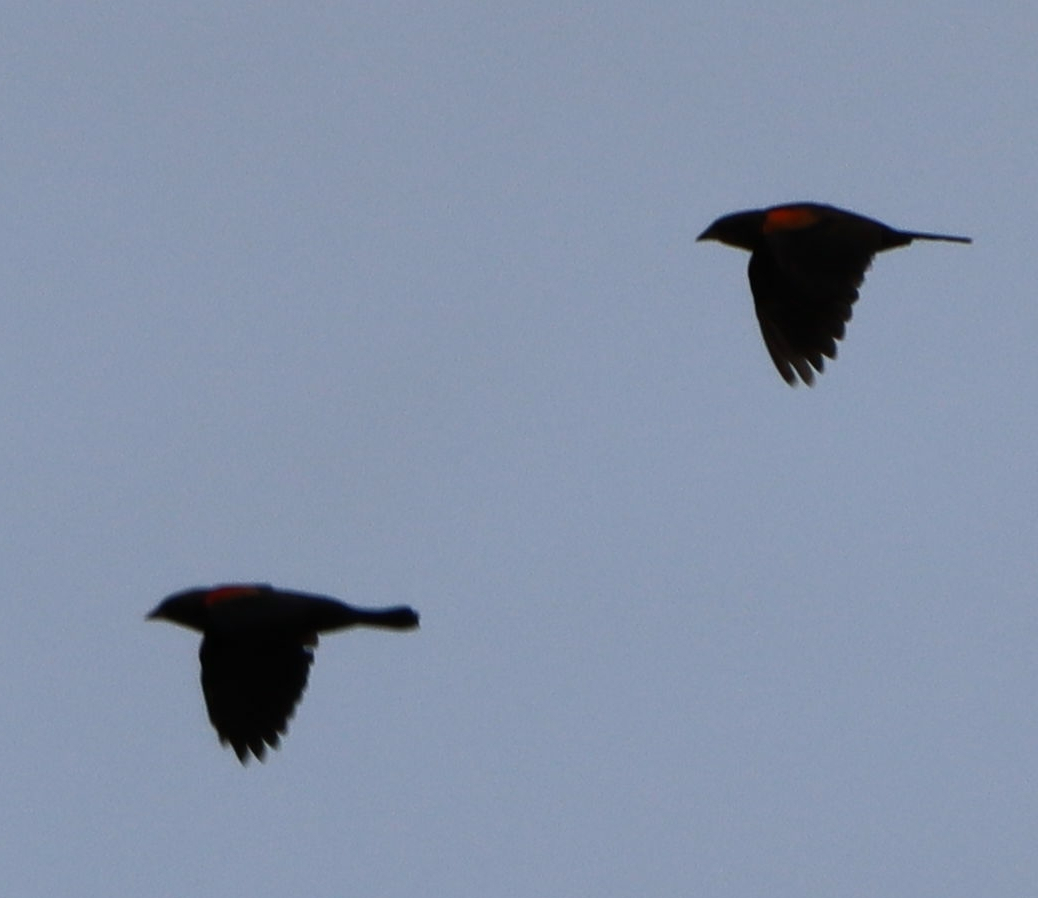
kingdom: Animalia
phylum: Chordata
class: Aves
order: Passeriformes
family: Icteridae
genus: Agelaius
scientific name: Agelaius phoeniceus
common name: Red-winged blackbird
